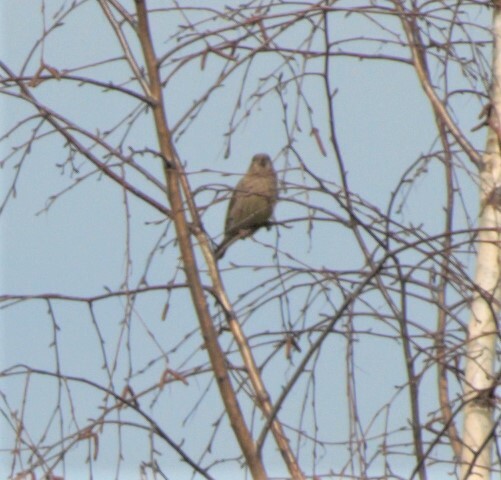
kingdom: Plantae
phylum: Tracheophyta
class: Liliopsida
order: Poales
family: Poaceae
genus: Chloris
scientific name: Chloris chloris
